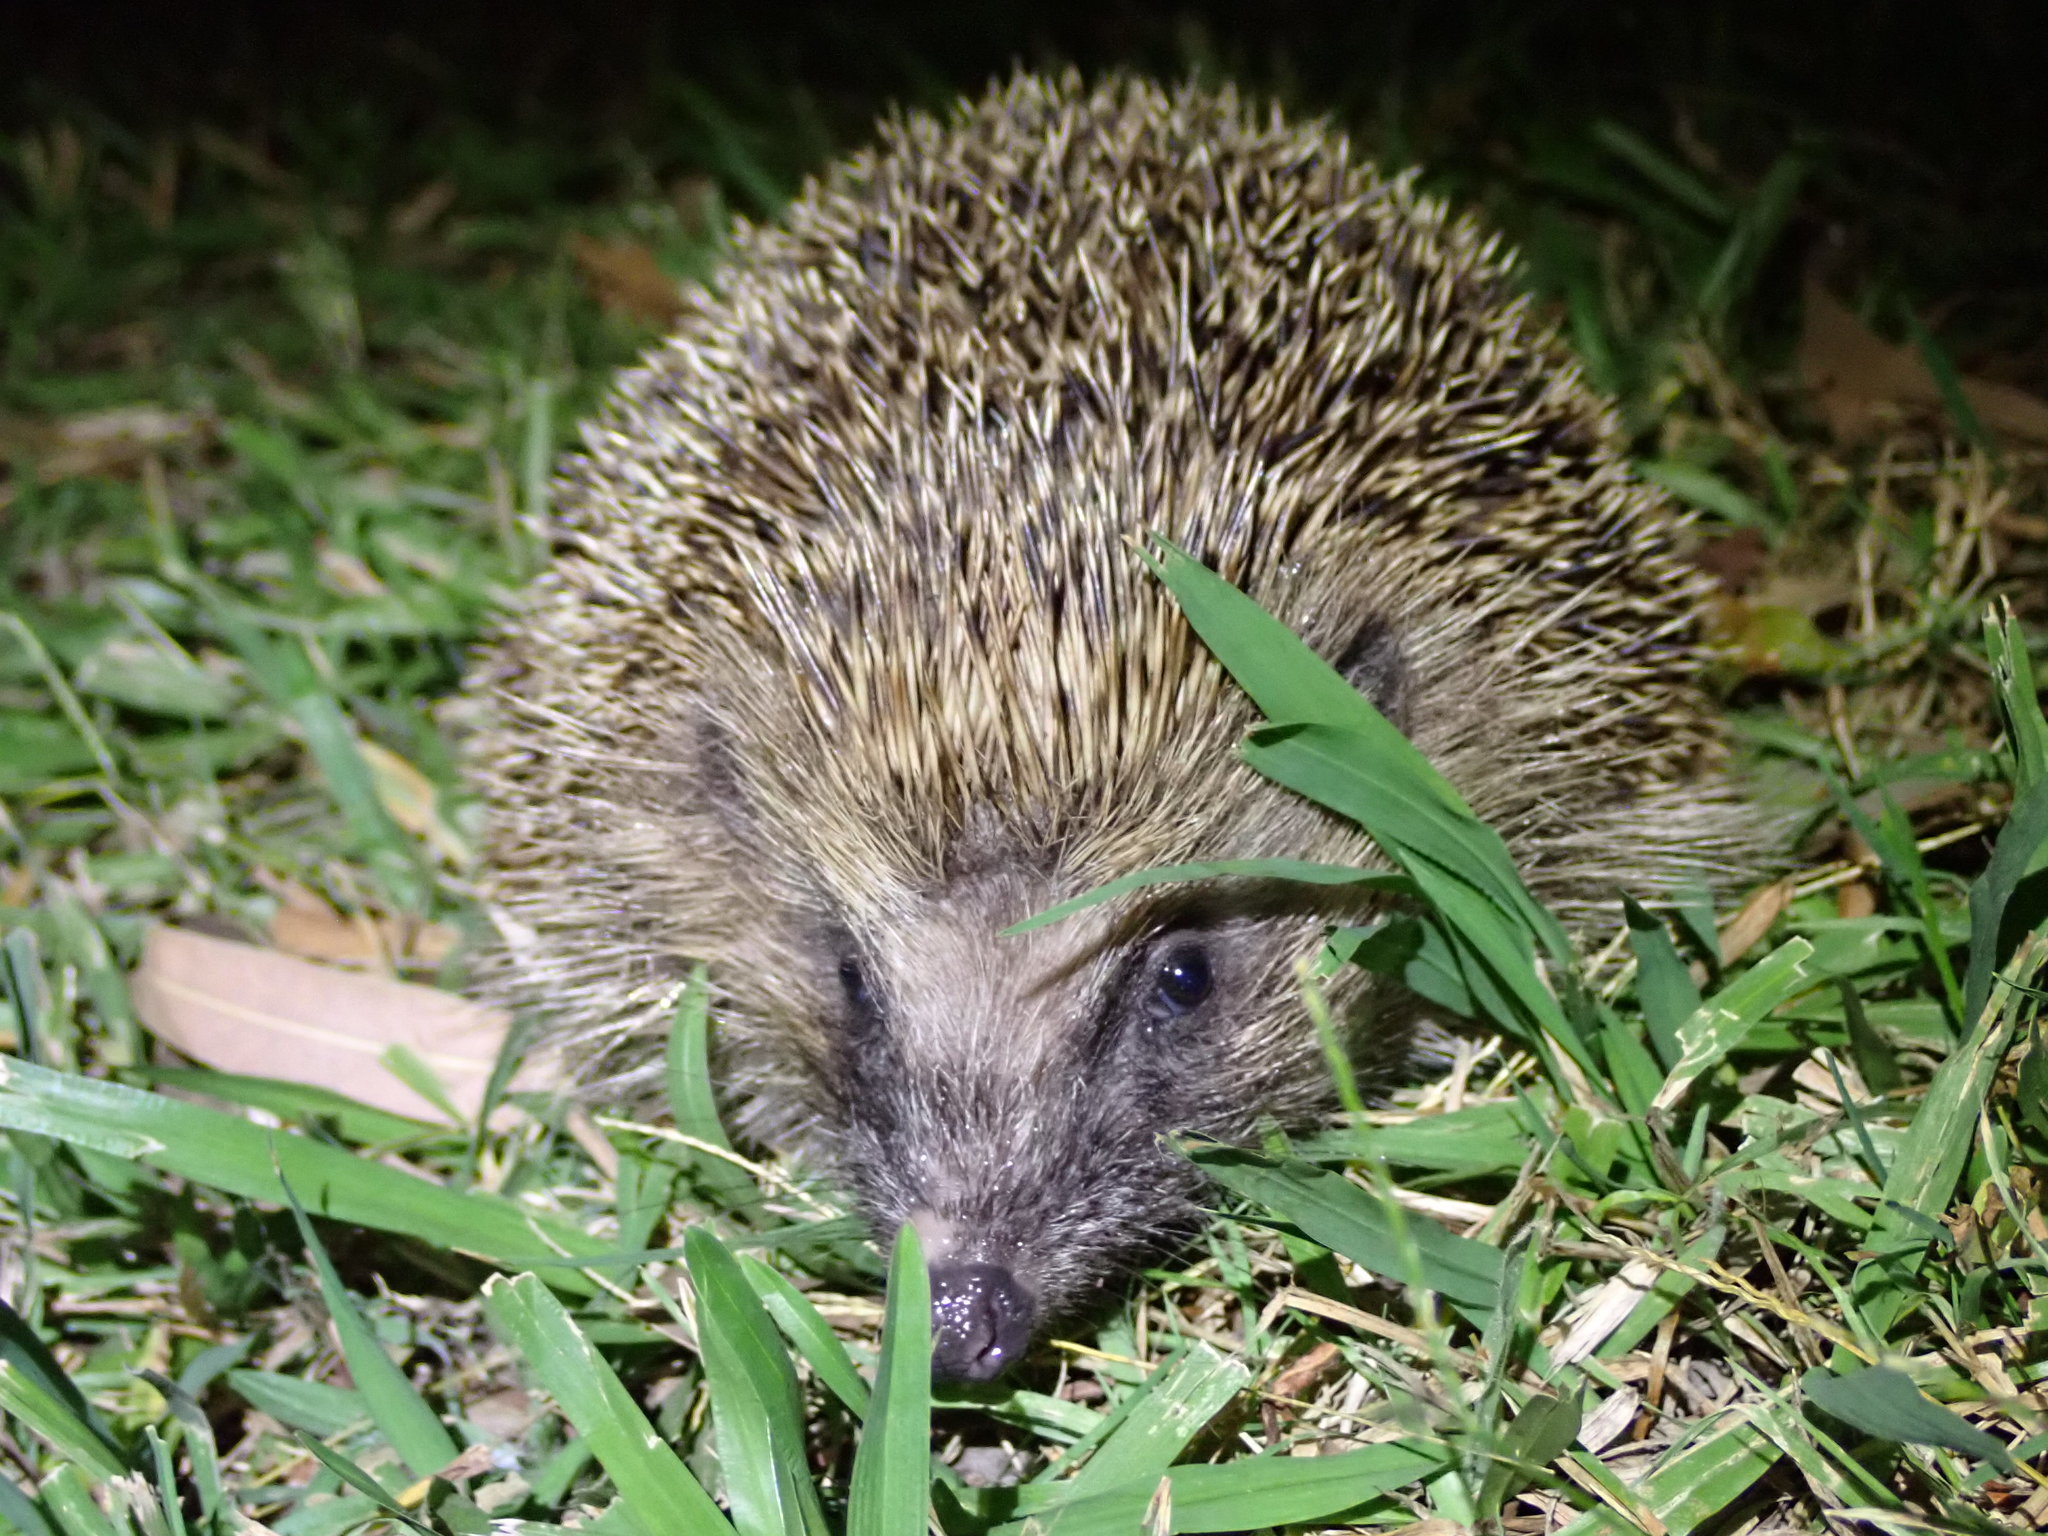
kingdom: Animalia
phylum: Chordata
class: Mammalia
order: Erinaceomorpha
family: Erinaceidae
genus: Erinaceus
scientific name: Erinaceus europaeus
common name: West european hedgehog
